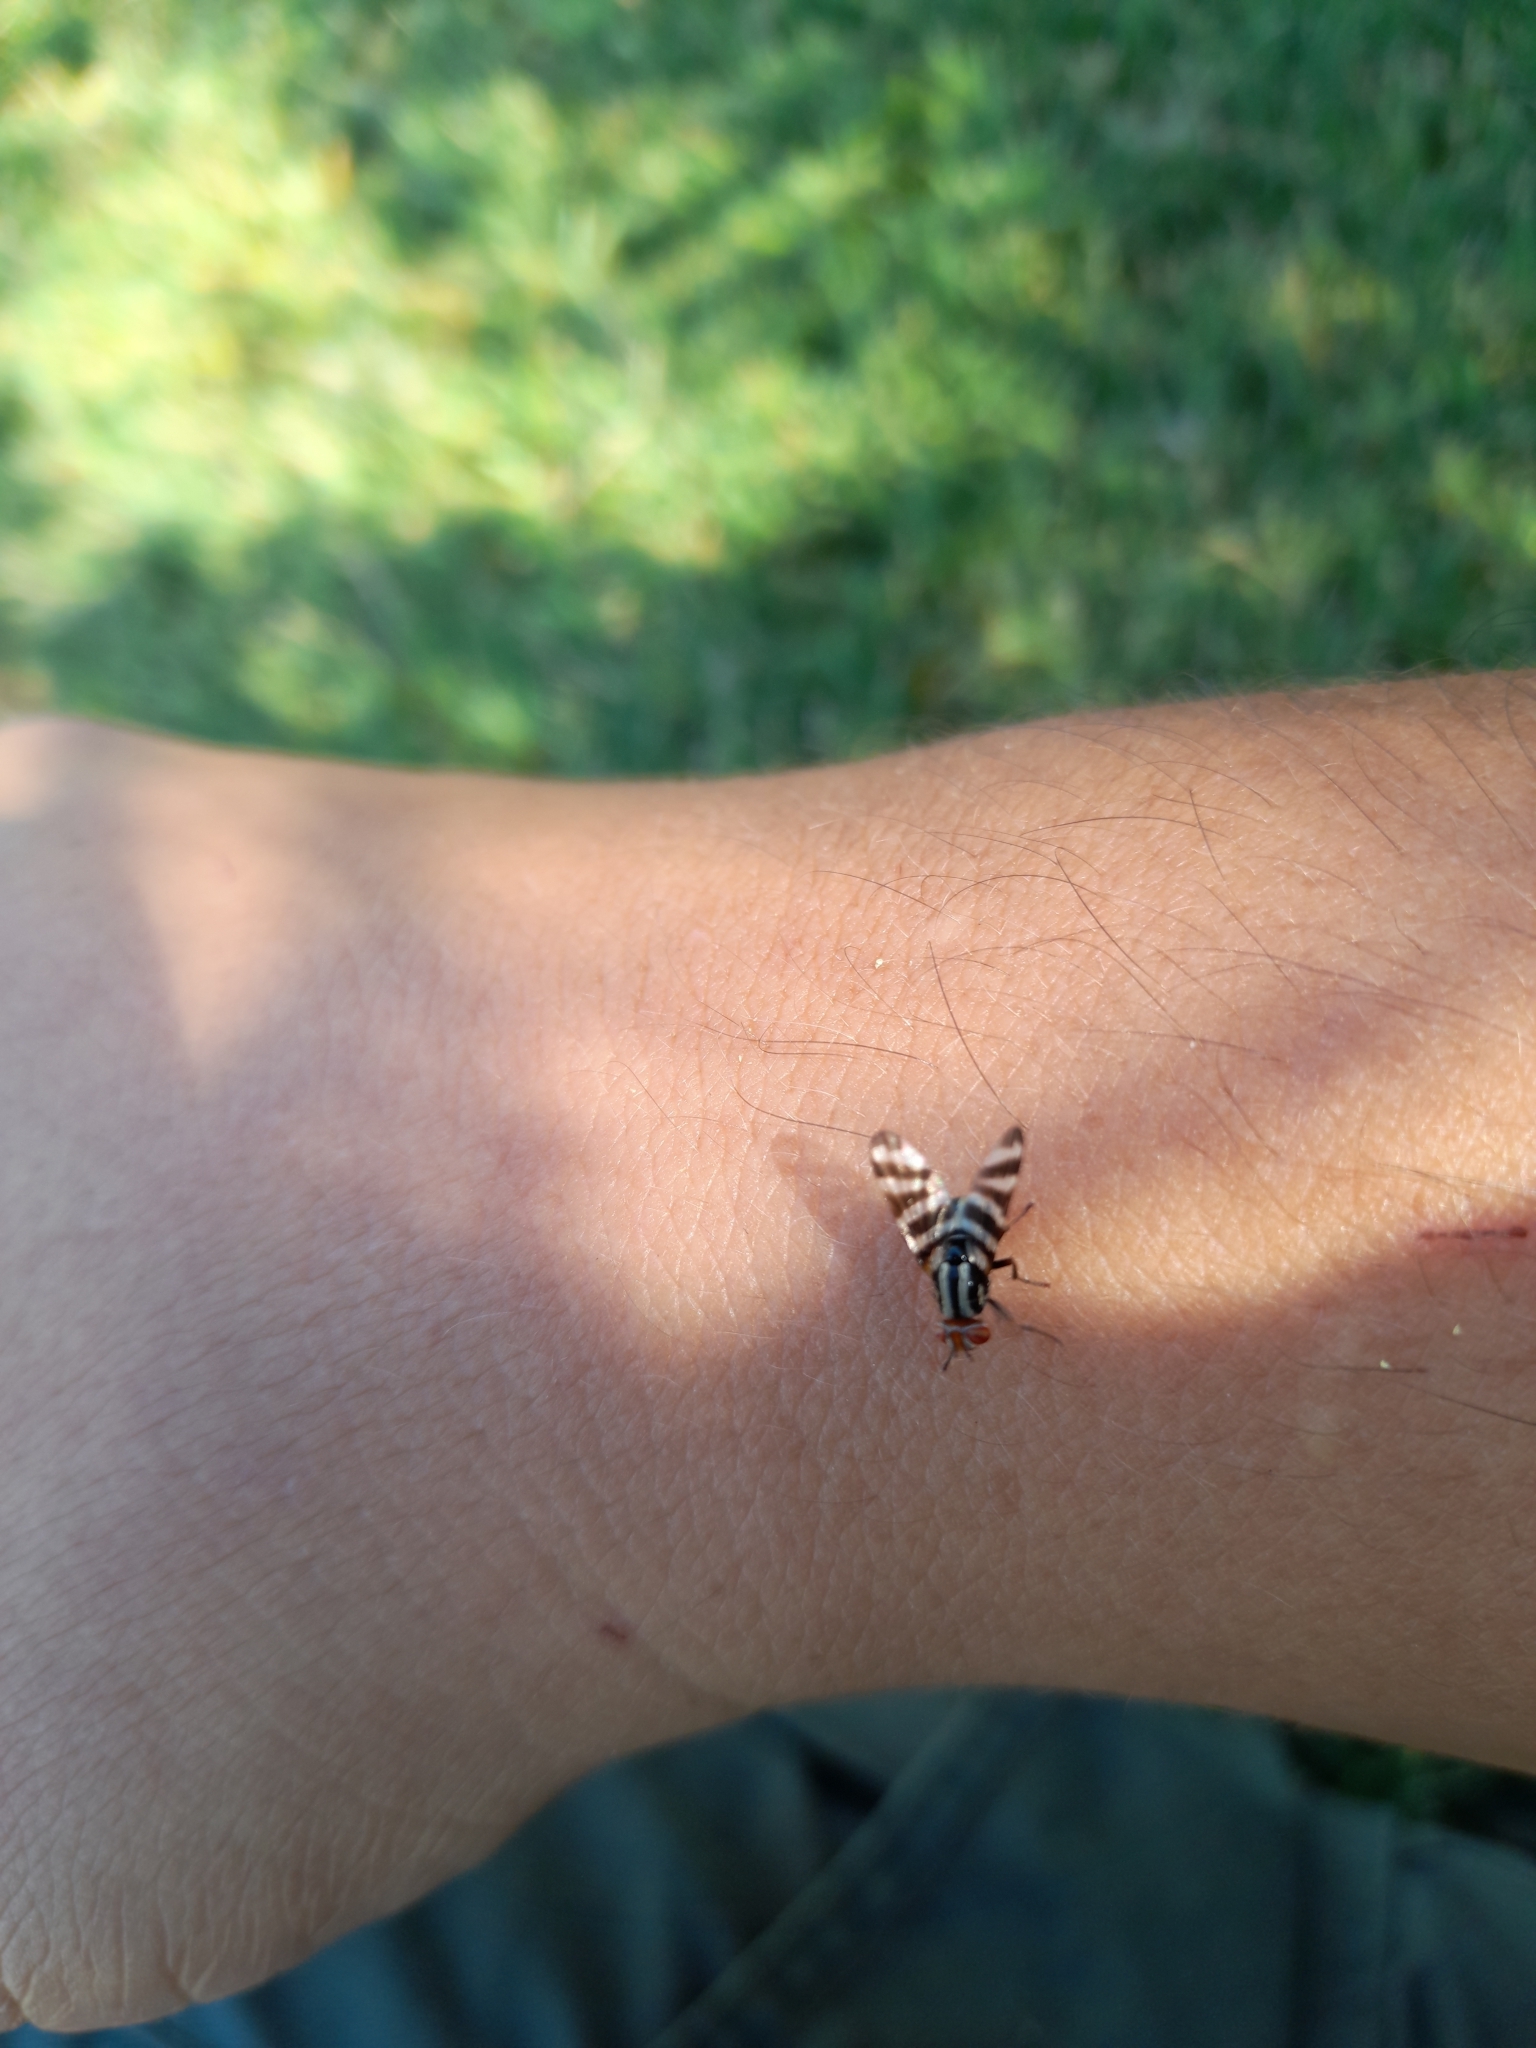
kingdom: Animalia
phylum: Arthropoda
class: Insecta
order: Diptera
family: Ulidiidae
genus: Pterotaenia
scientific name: Pterotaenia fasciata
